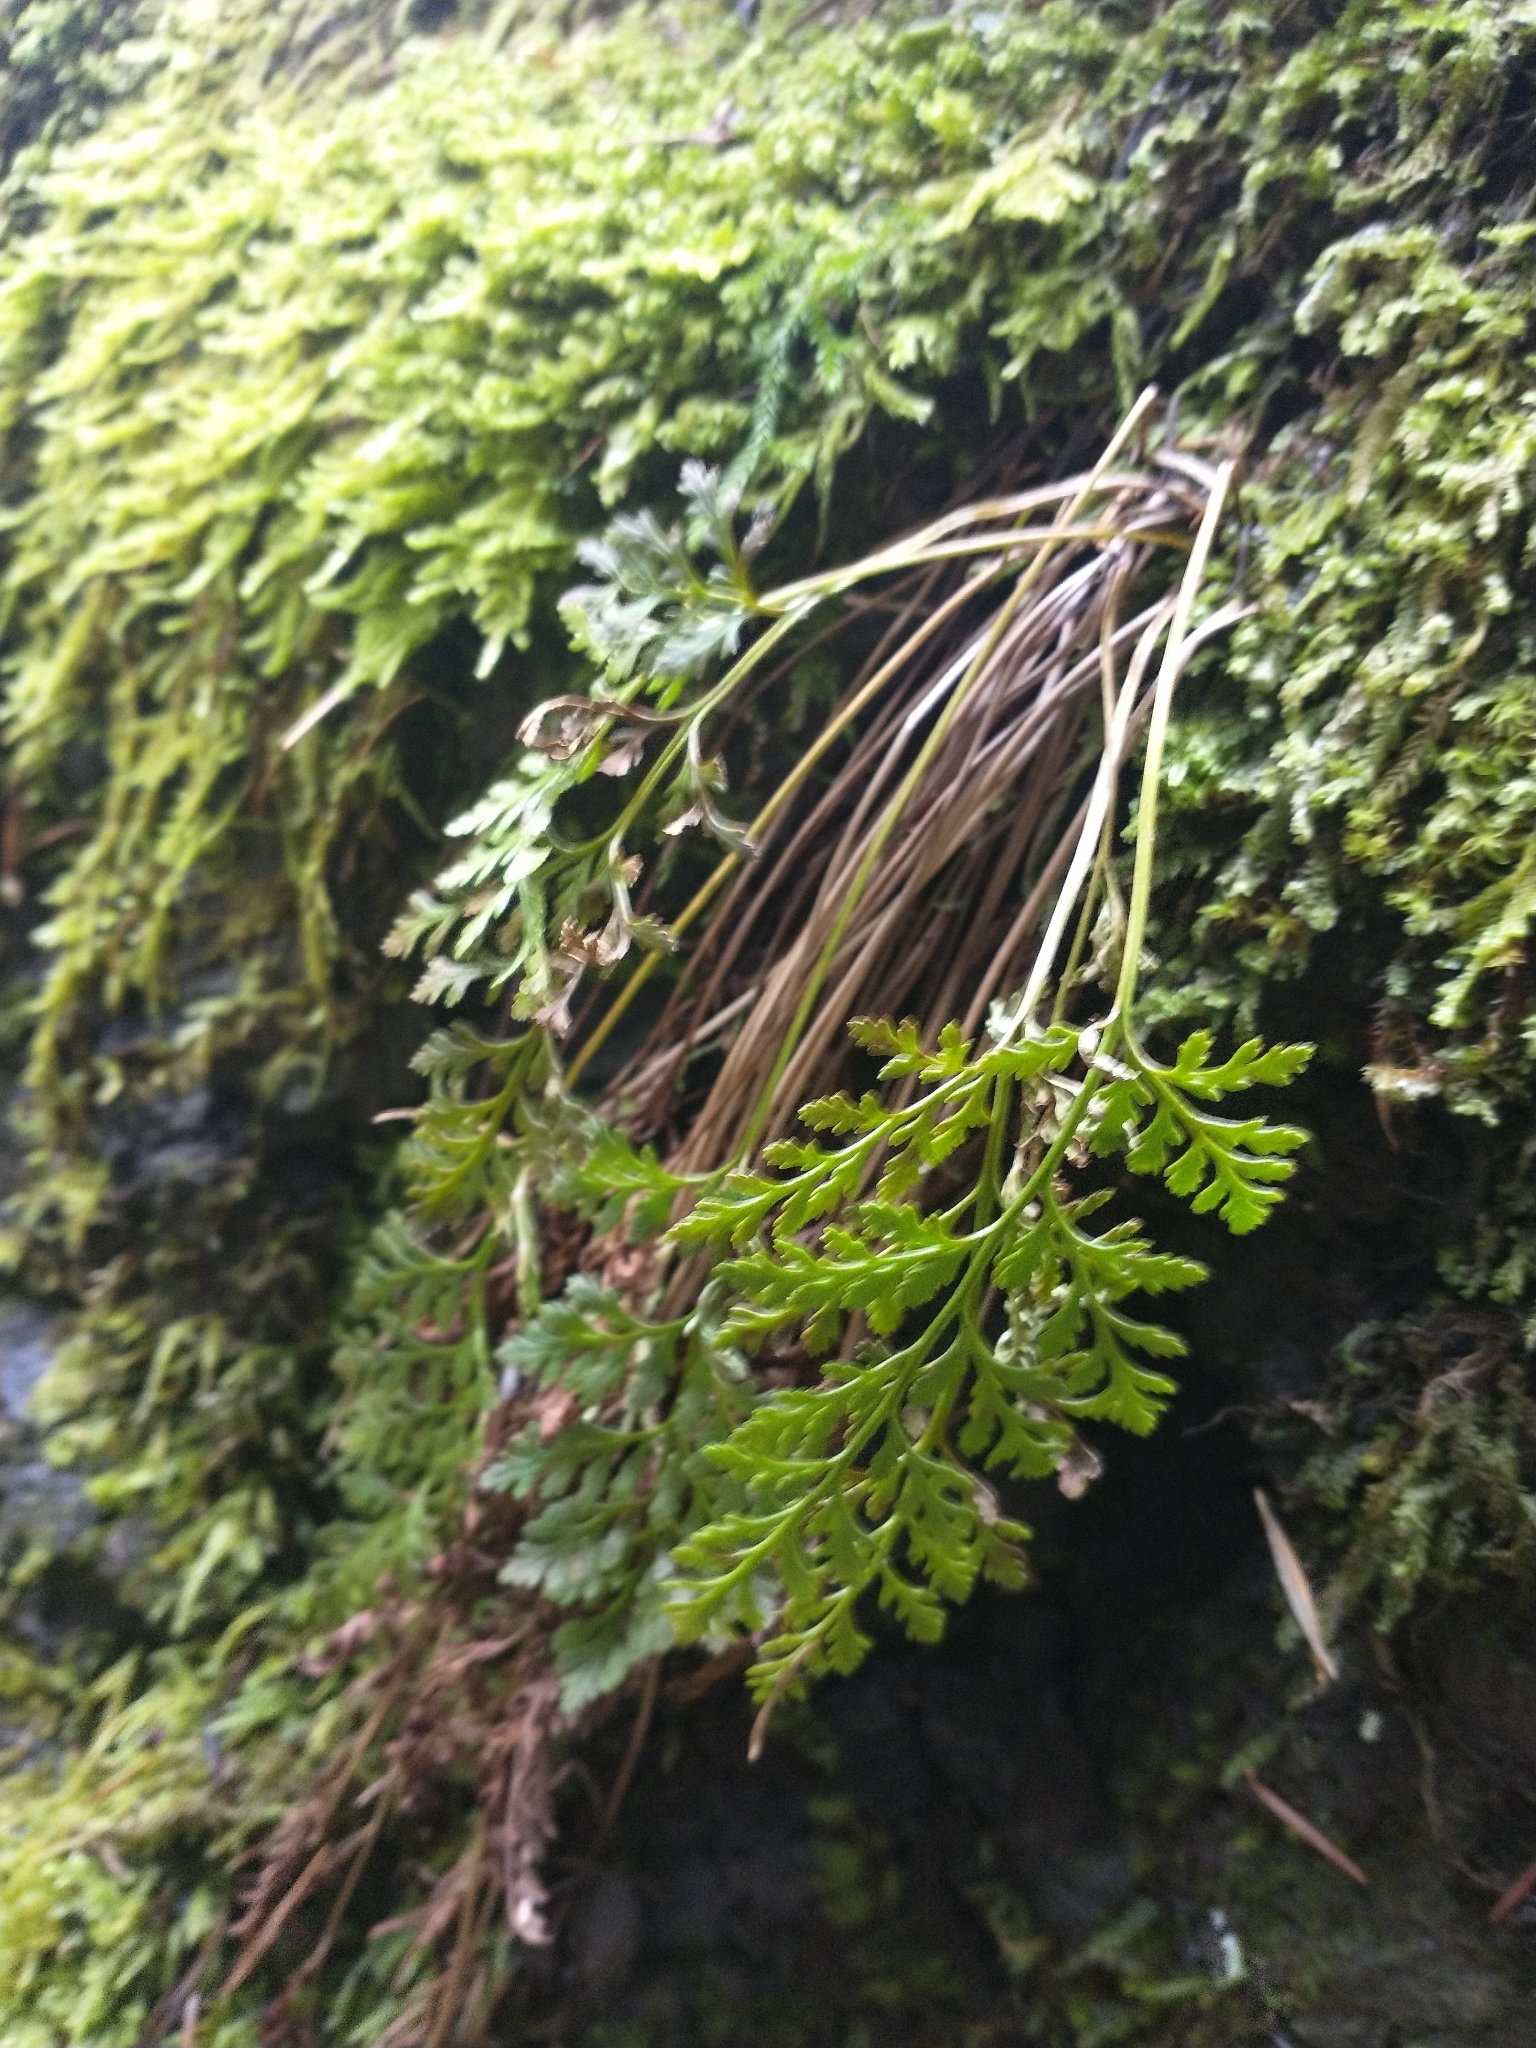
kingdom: Plantae
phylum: Tracheophyta
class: Polypodiopsida
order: Polypodiales
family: Pteridaceae
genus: Cryptogramma
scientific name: Cryptogramma acrostichoides
